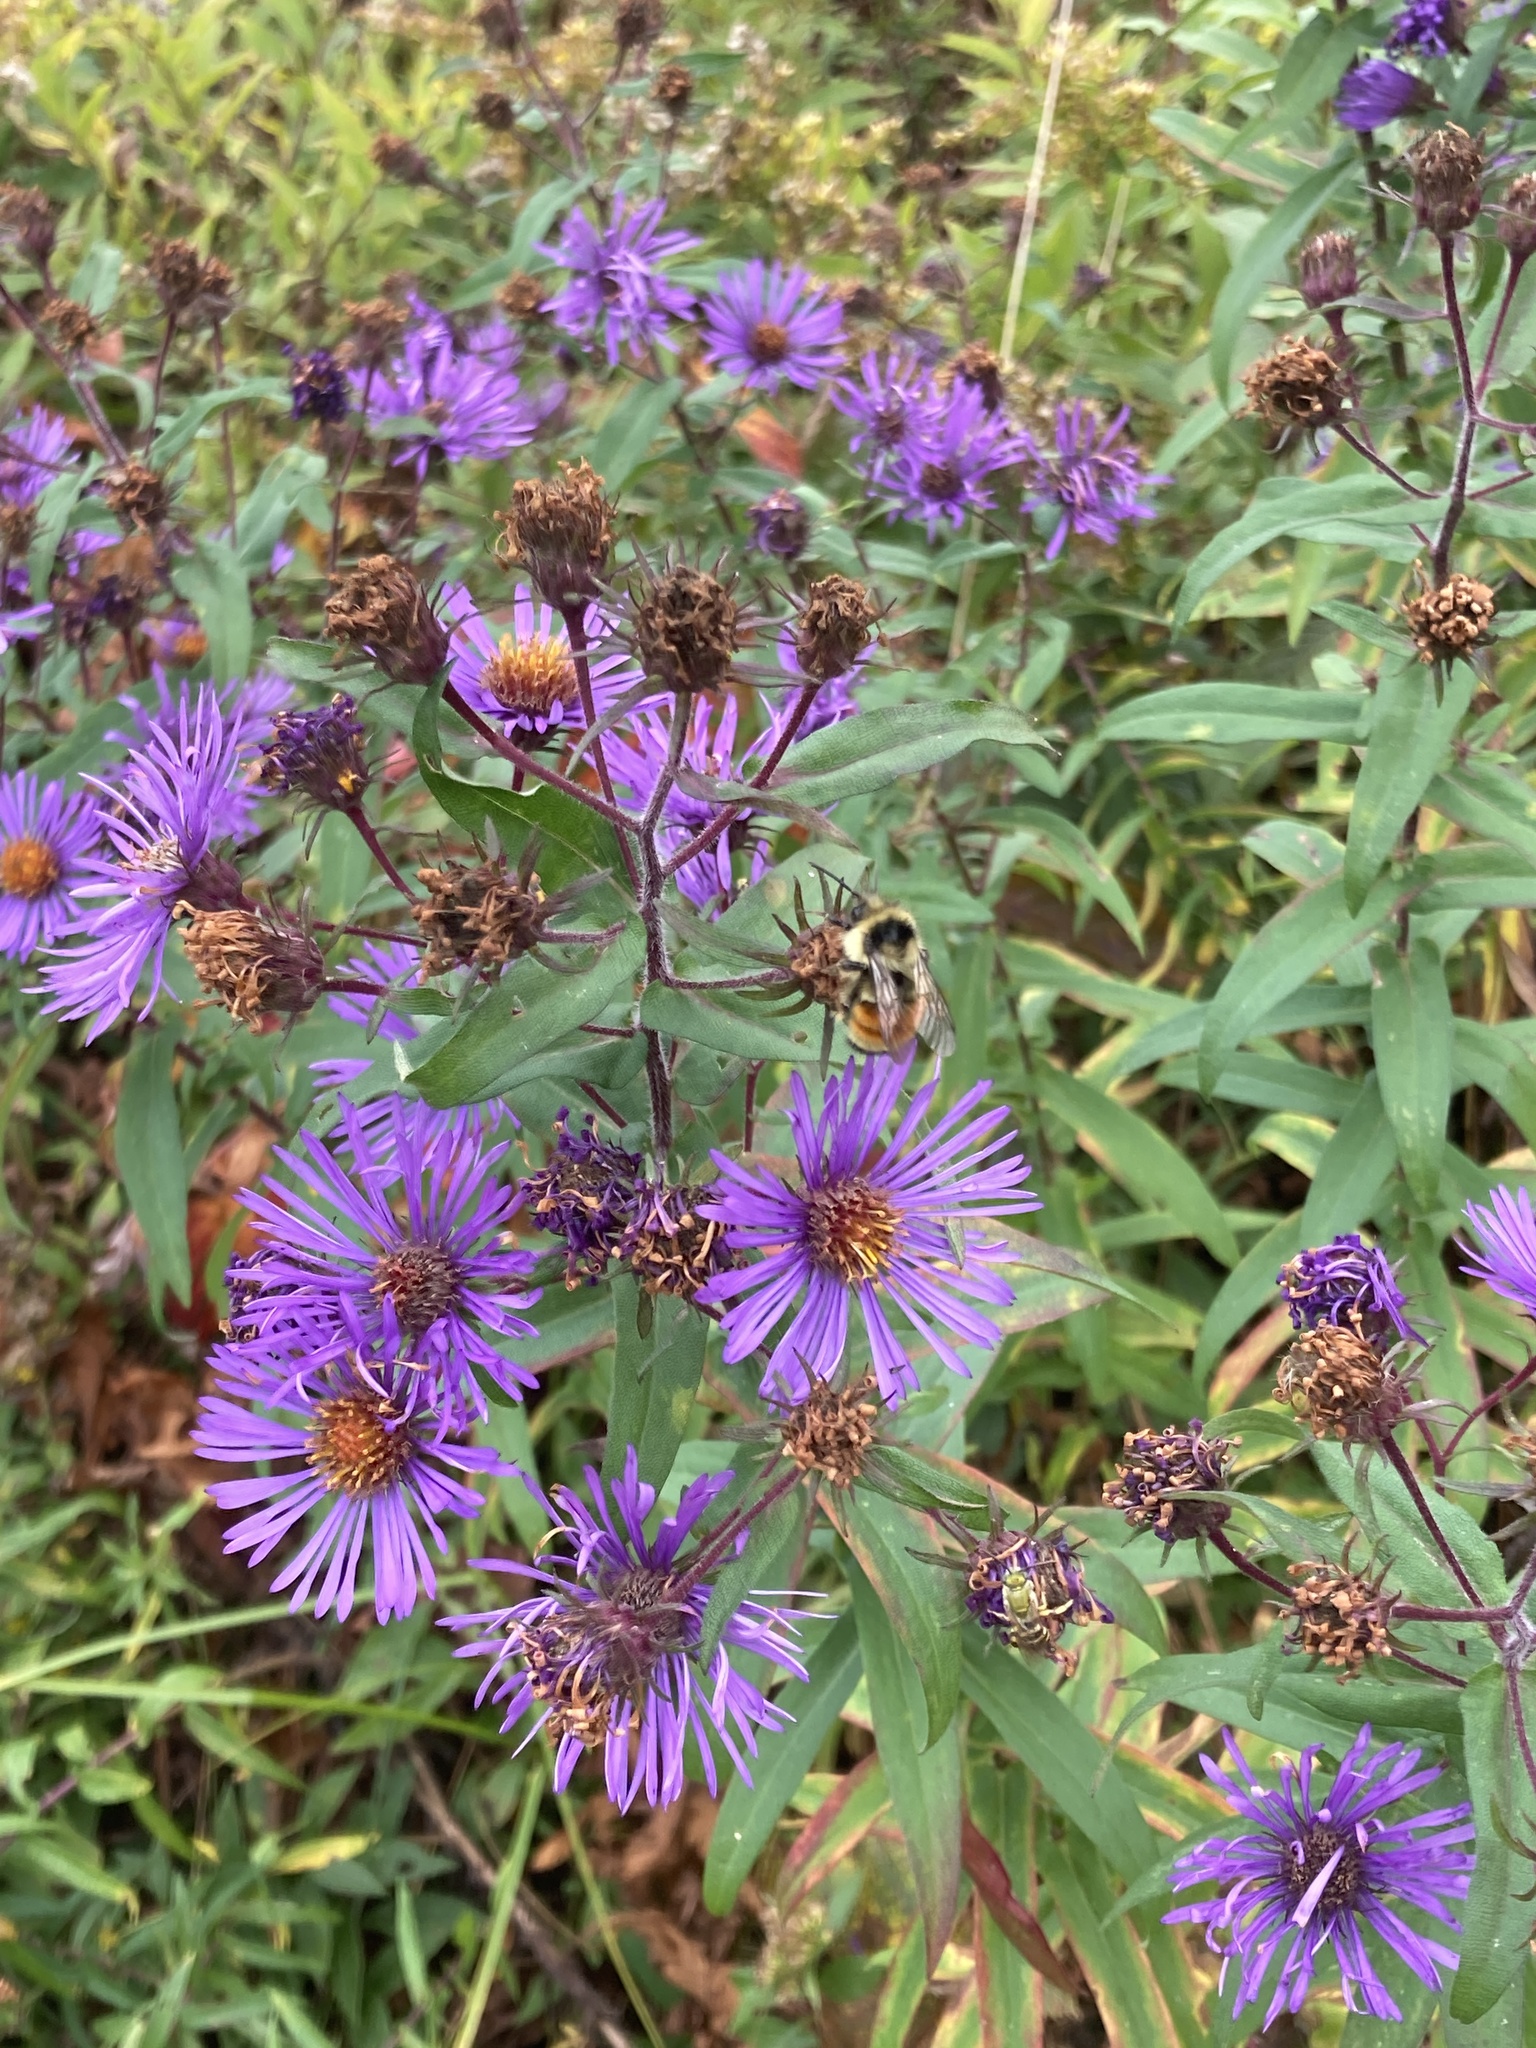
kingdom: Plantae
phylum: Tracheophyta
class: Magnoliopsida
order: Asterales
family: Asteraceae
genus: Symphyotrichum
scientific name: Symphyotrichum novae-angliae
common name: Michaelmas daisy
